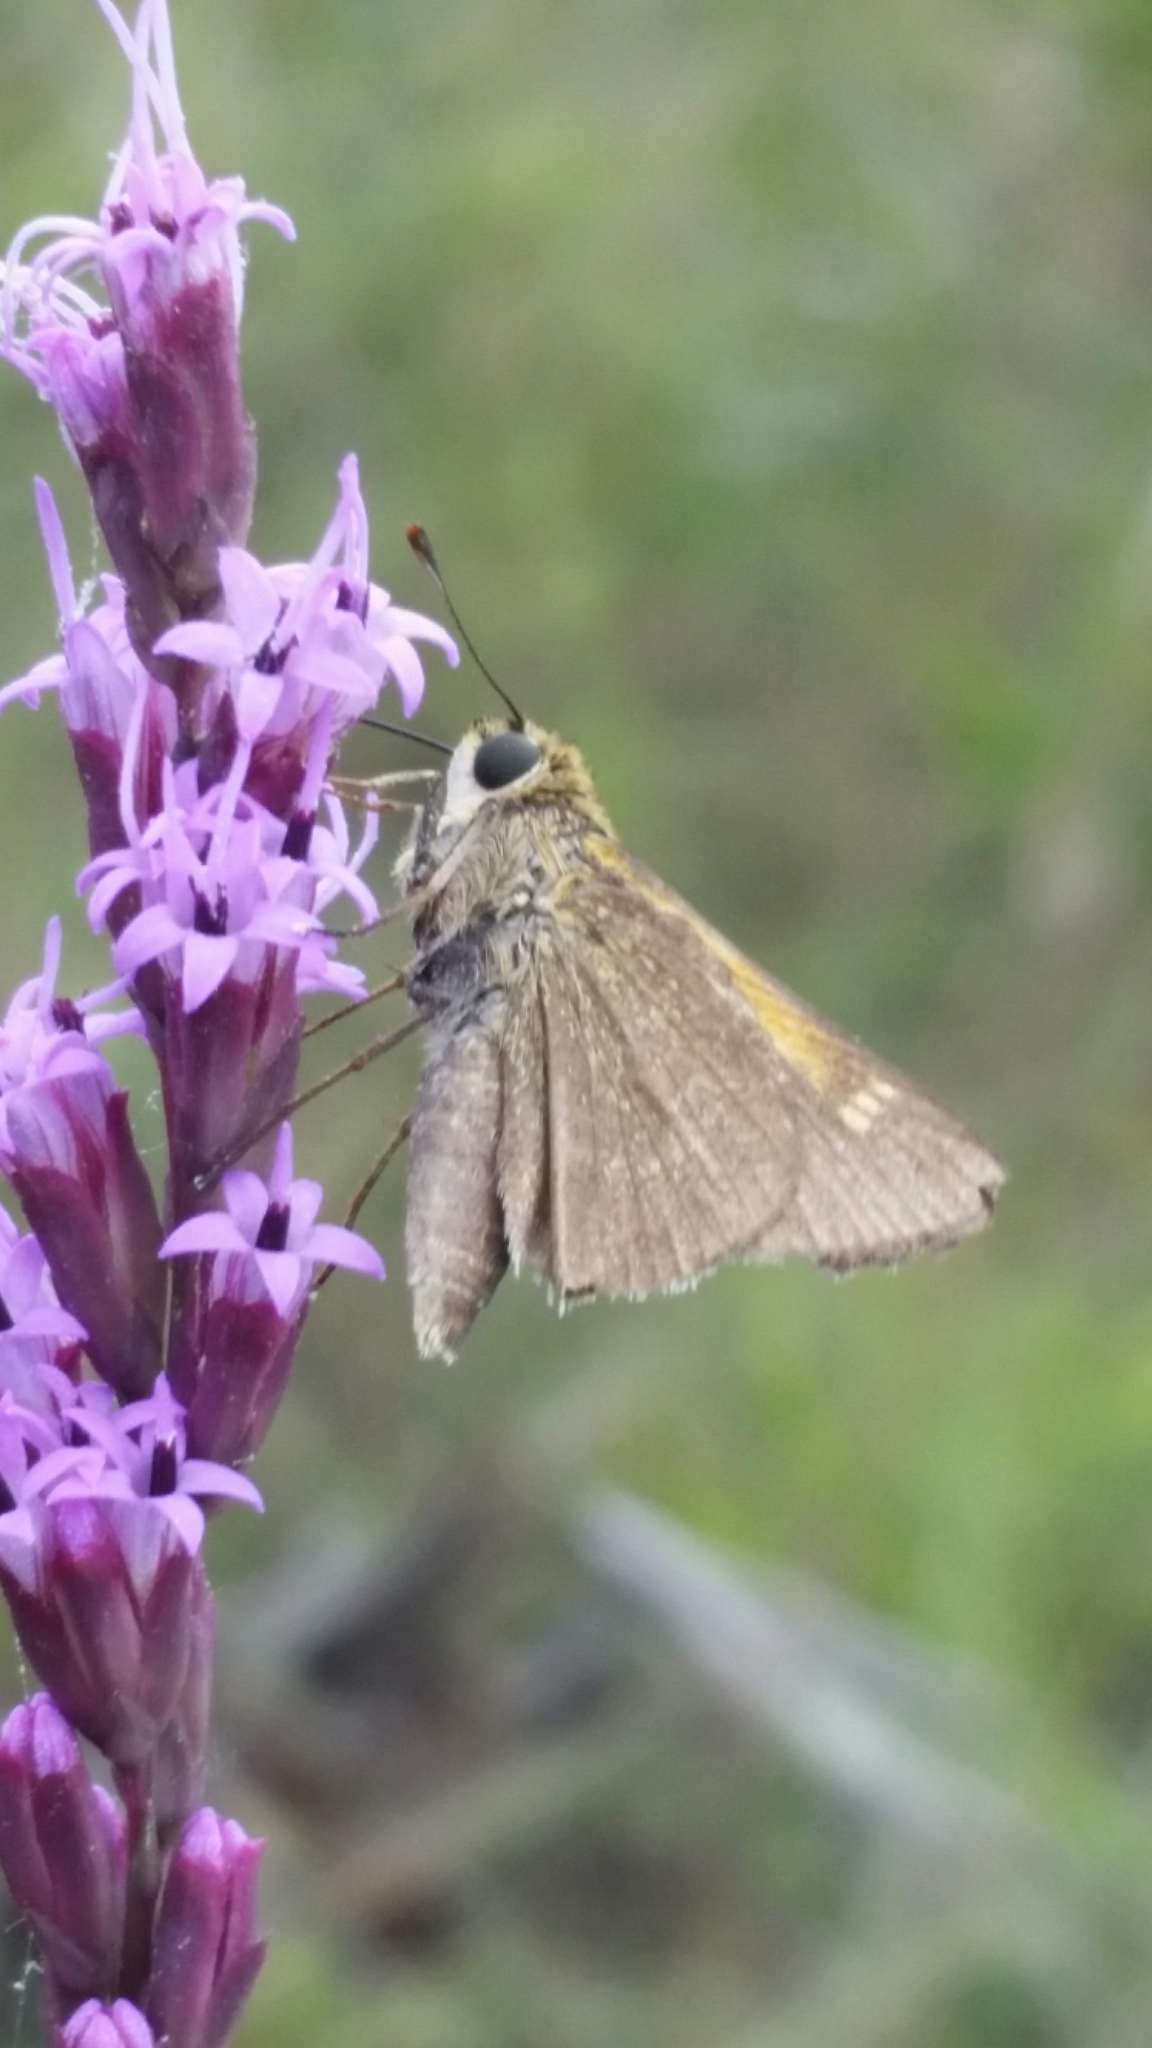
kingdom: Animalia
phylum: Arthropoda
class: Insecta
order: Lepidoptera
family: Hesperiidae
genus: Polites
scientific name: Polites themistocles
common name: Tawny-edged skipper
